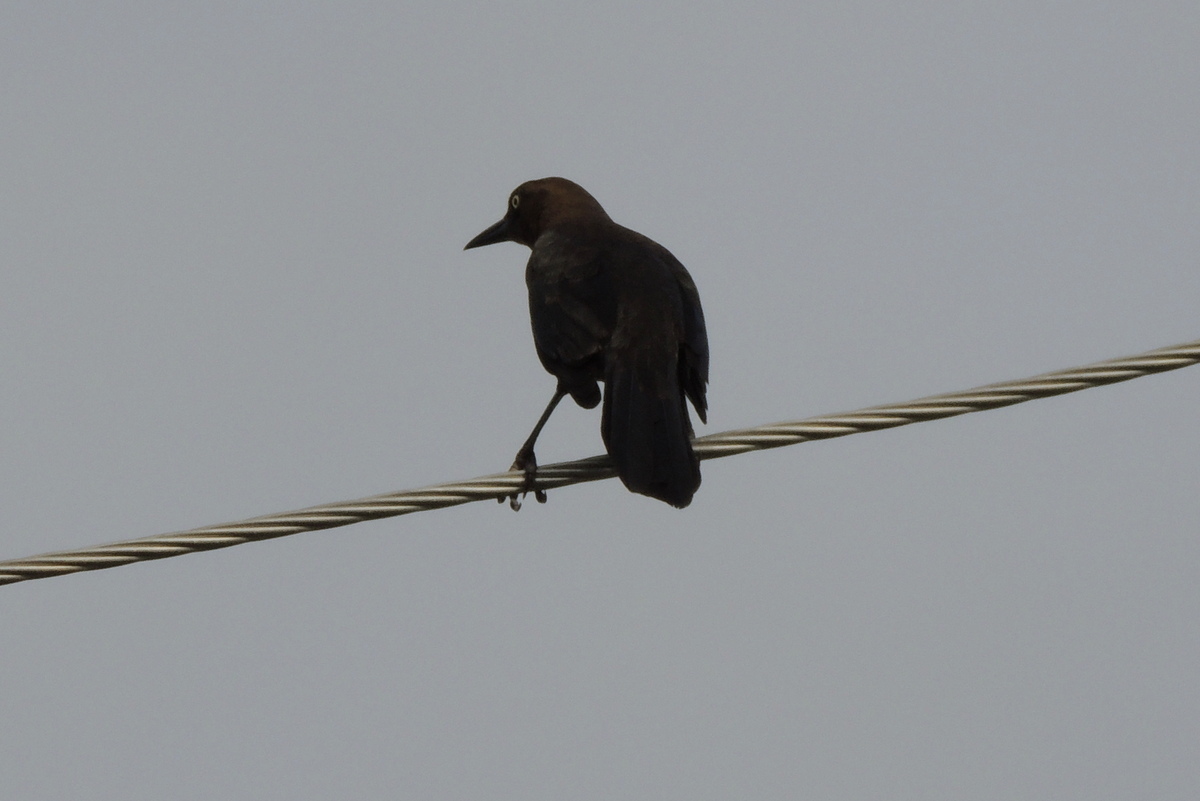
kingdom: Animalia
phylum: Chordata
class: Aves
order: Passeriformes
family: Icteridae
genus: Quiscalus
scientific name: Quiscalus mexicanus
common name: Great-tailed grackle
